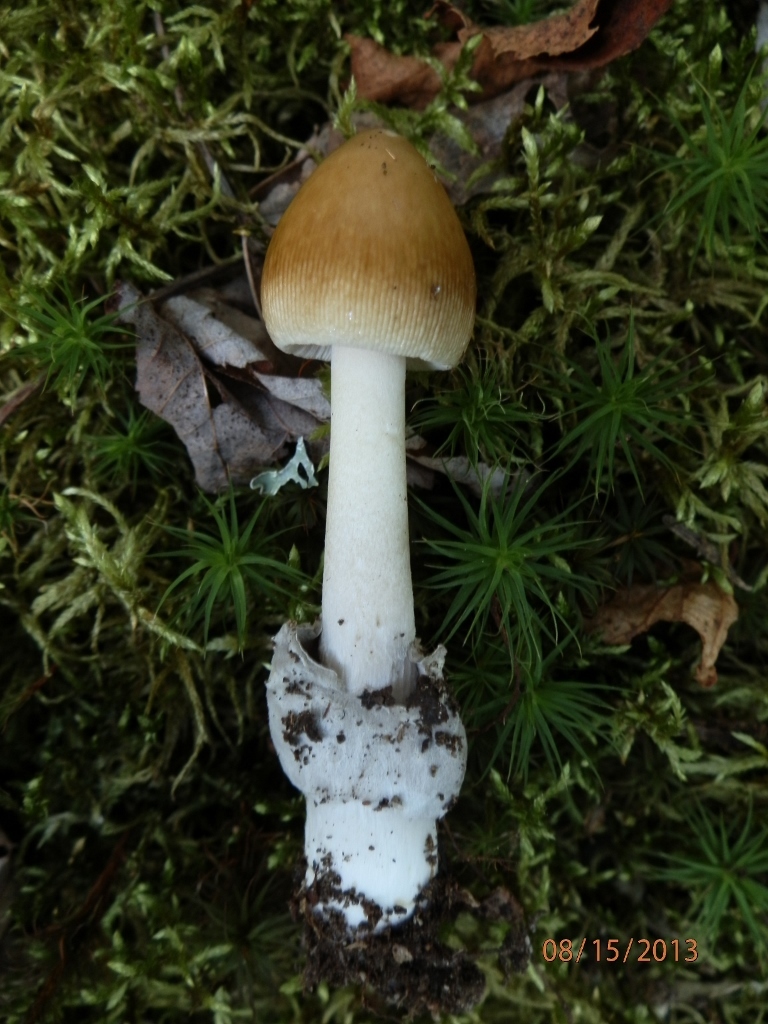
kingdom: Fungi
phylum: Basidiomycota
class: Agaricomycetes
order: Agaricales
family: Amanitaceae
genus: Amanita
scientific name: Amanita sinicoflava
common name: Mandarin yellow ringless amanita
